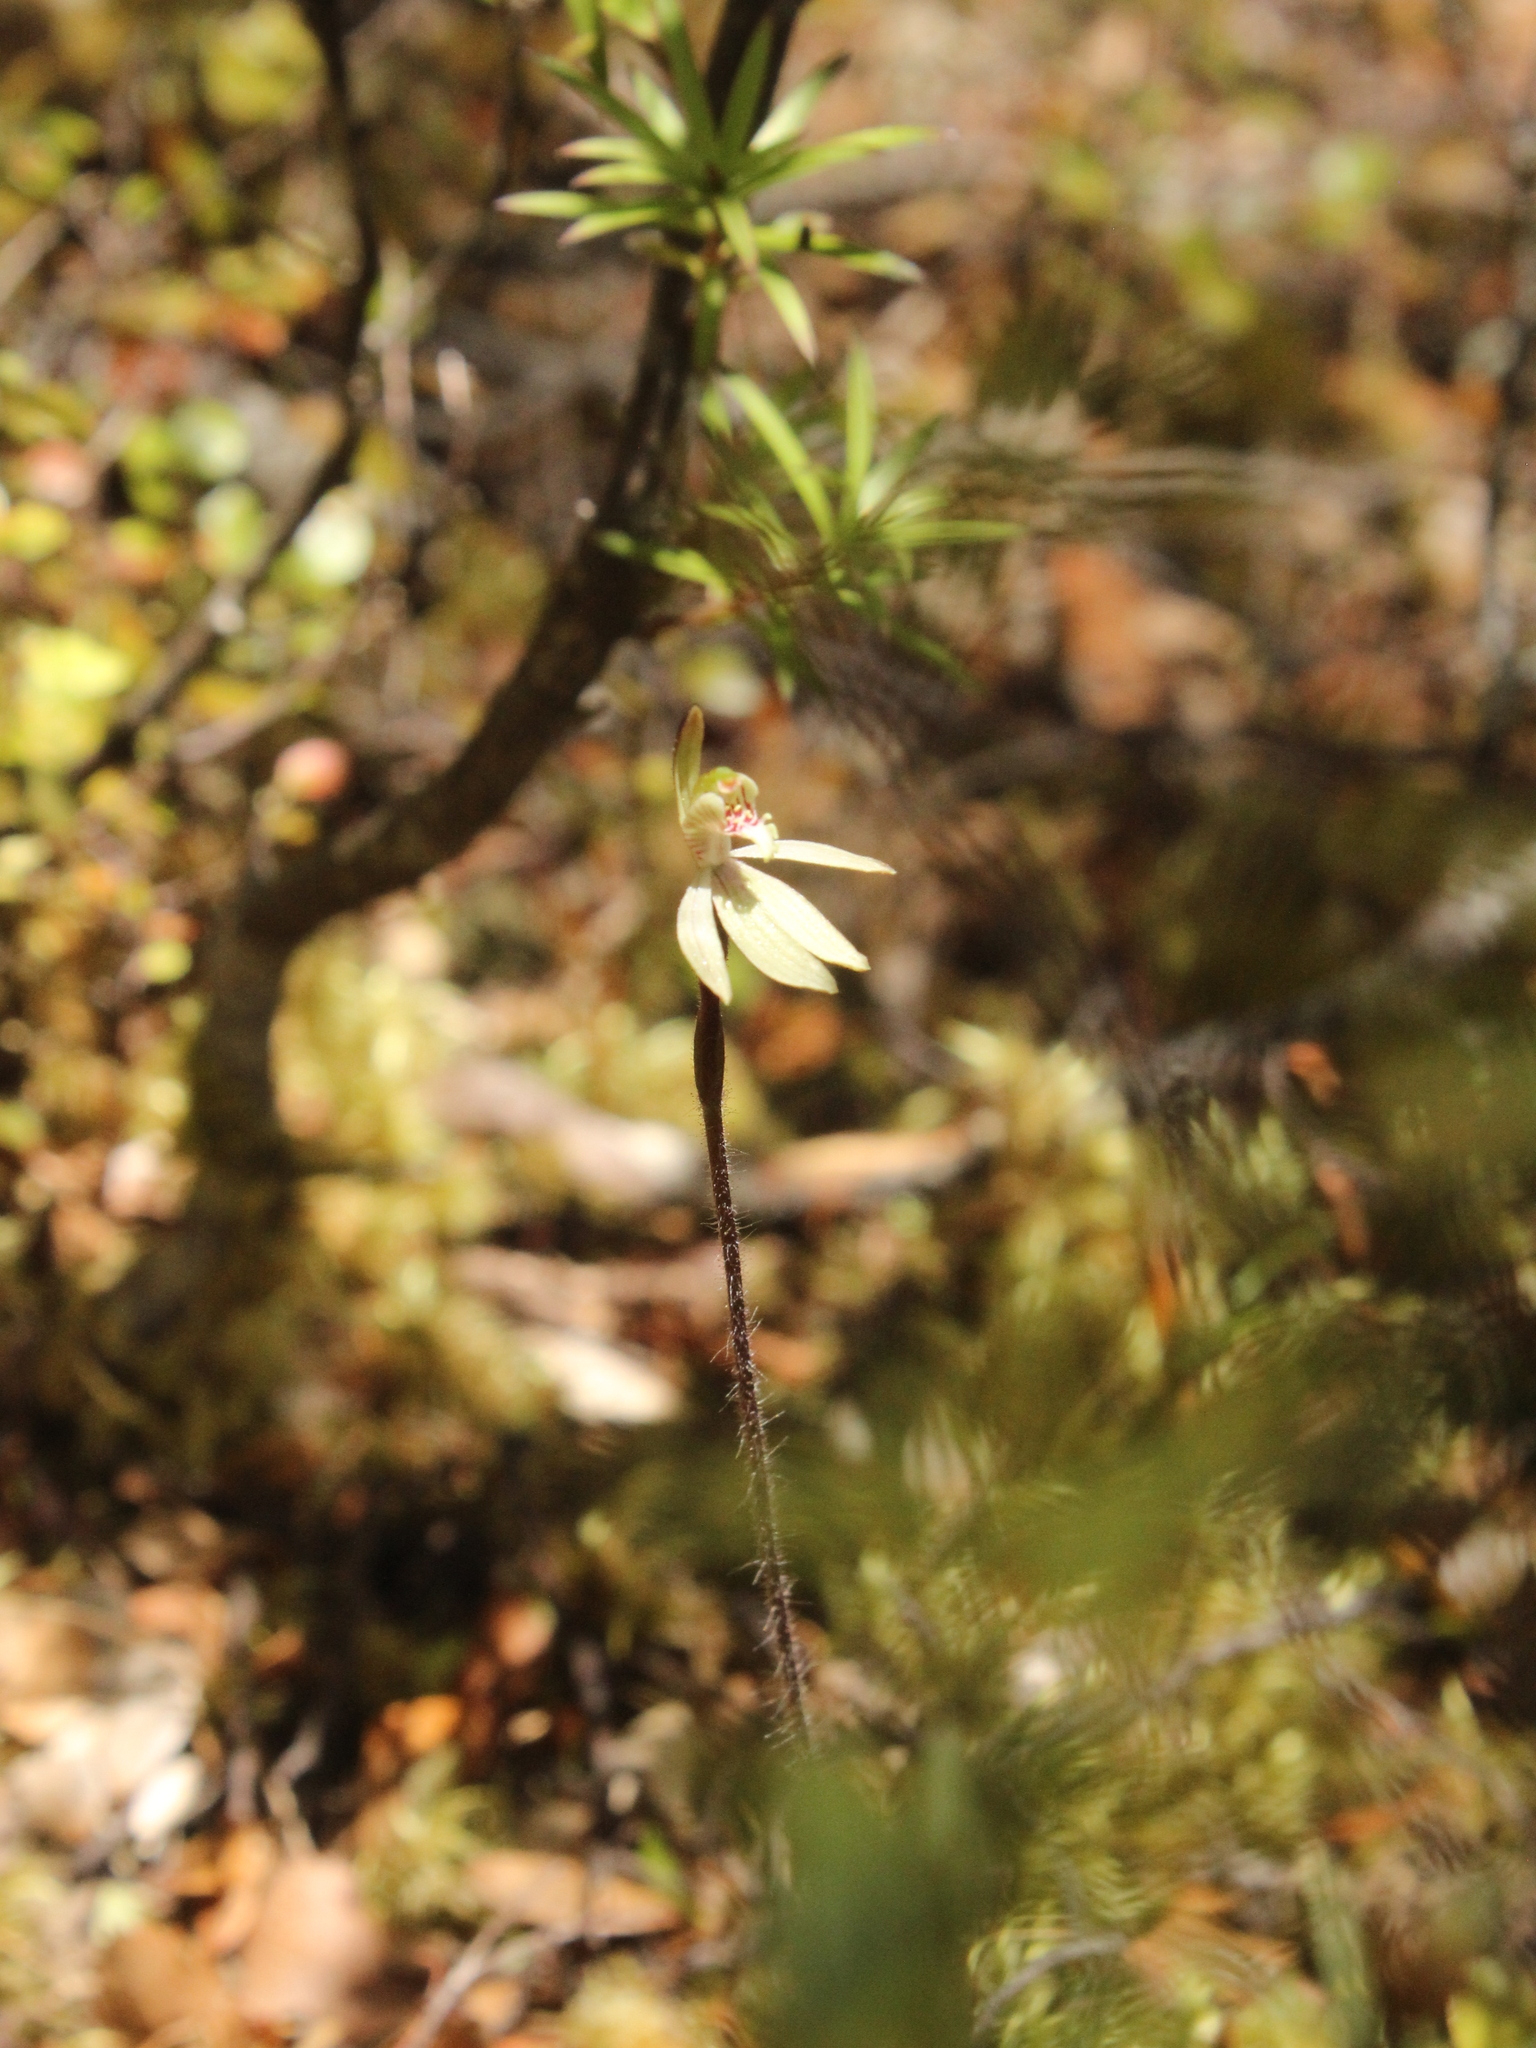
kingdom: Plantae
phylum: Tracheophyta
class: Liliopsida
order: Asparagales
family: Orchidaceae
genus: Caladenia
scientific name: Caladenia chlorostyla
